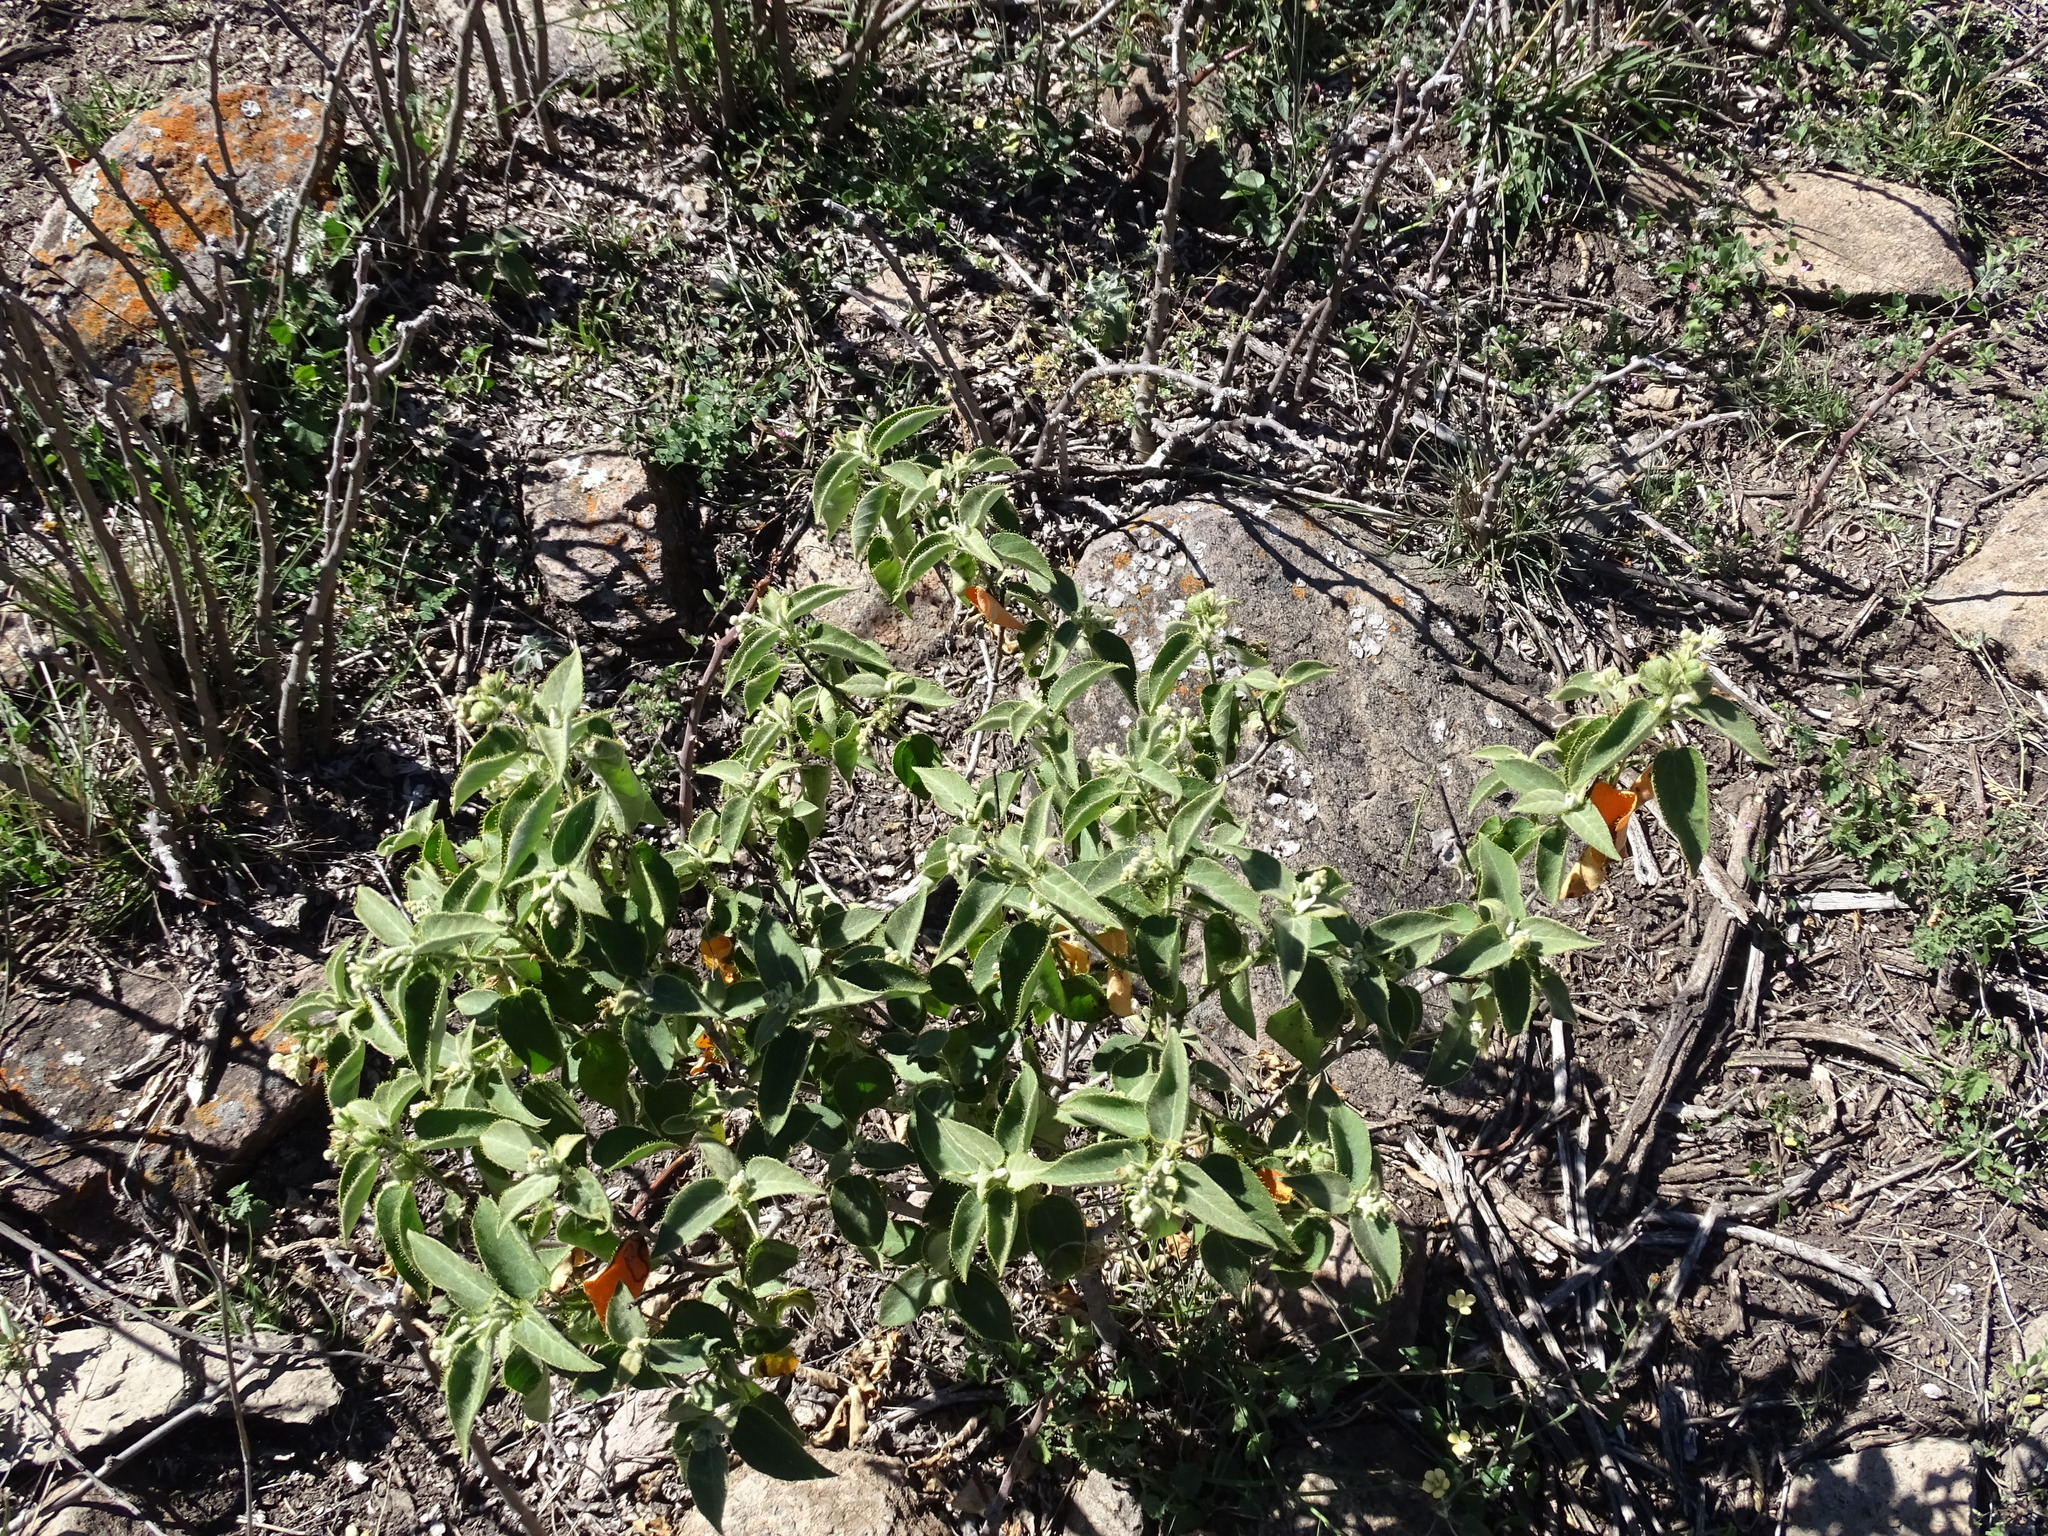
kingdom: Plantae
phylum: Tracheophyta
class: Magnoliopsida
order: Malpighiales
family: Euphorbiaceae
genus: Croton
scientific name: Croton ciliatoglandulifer
